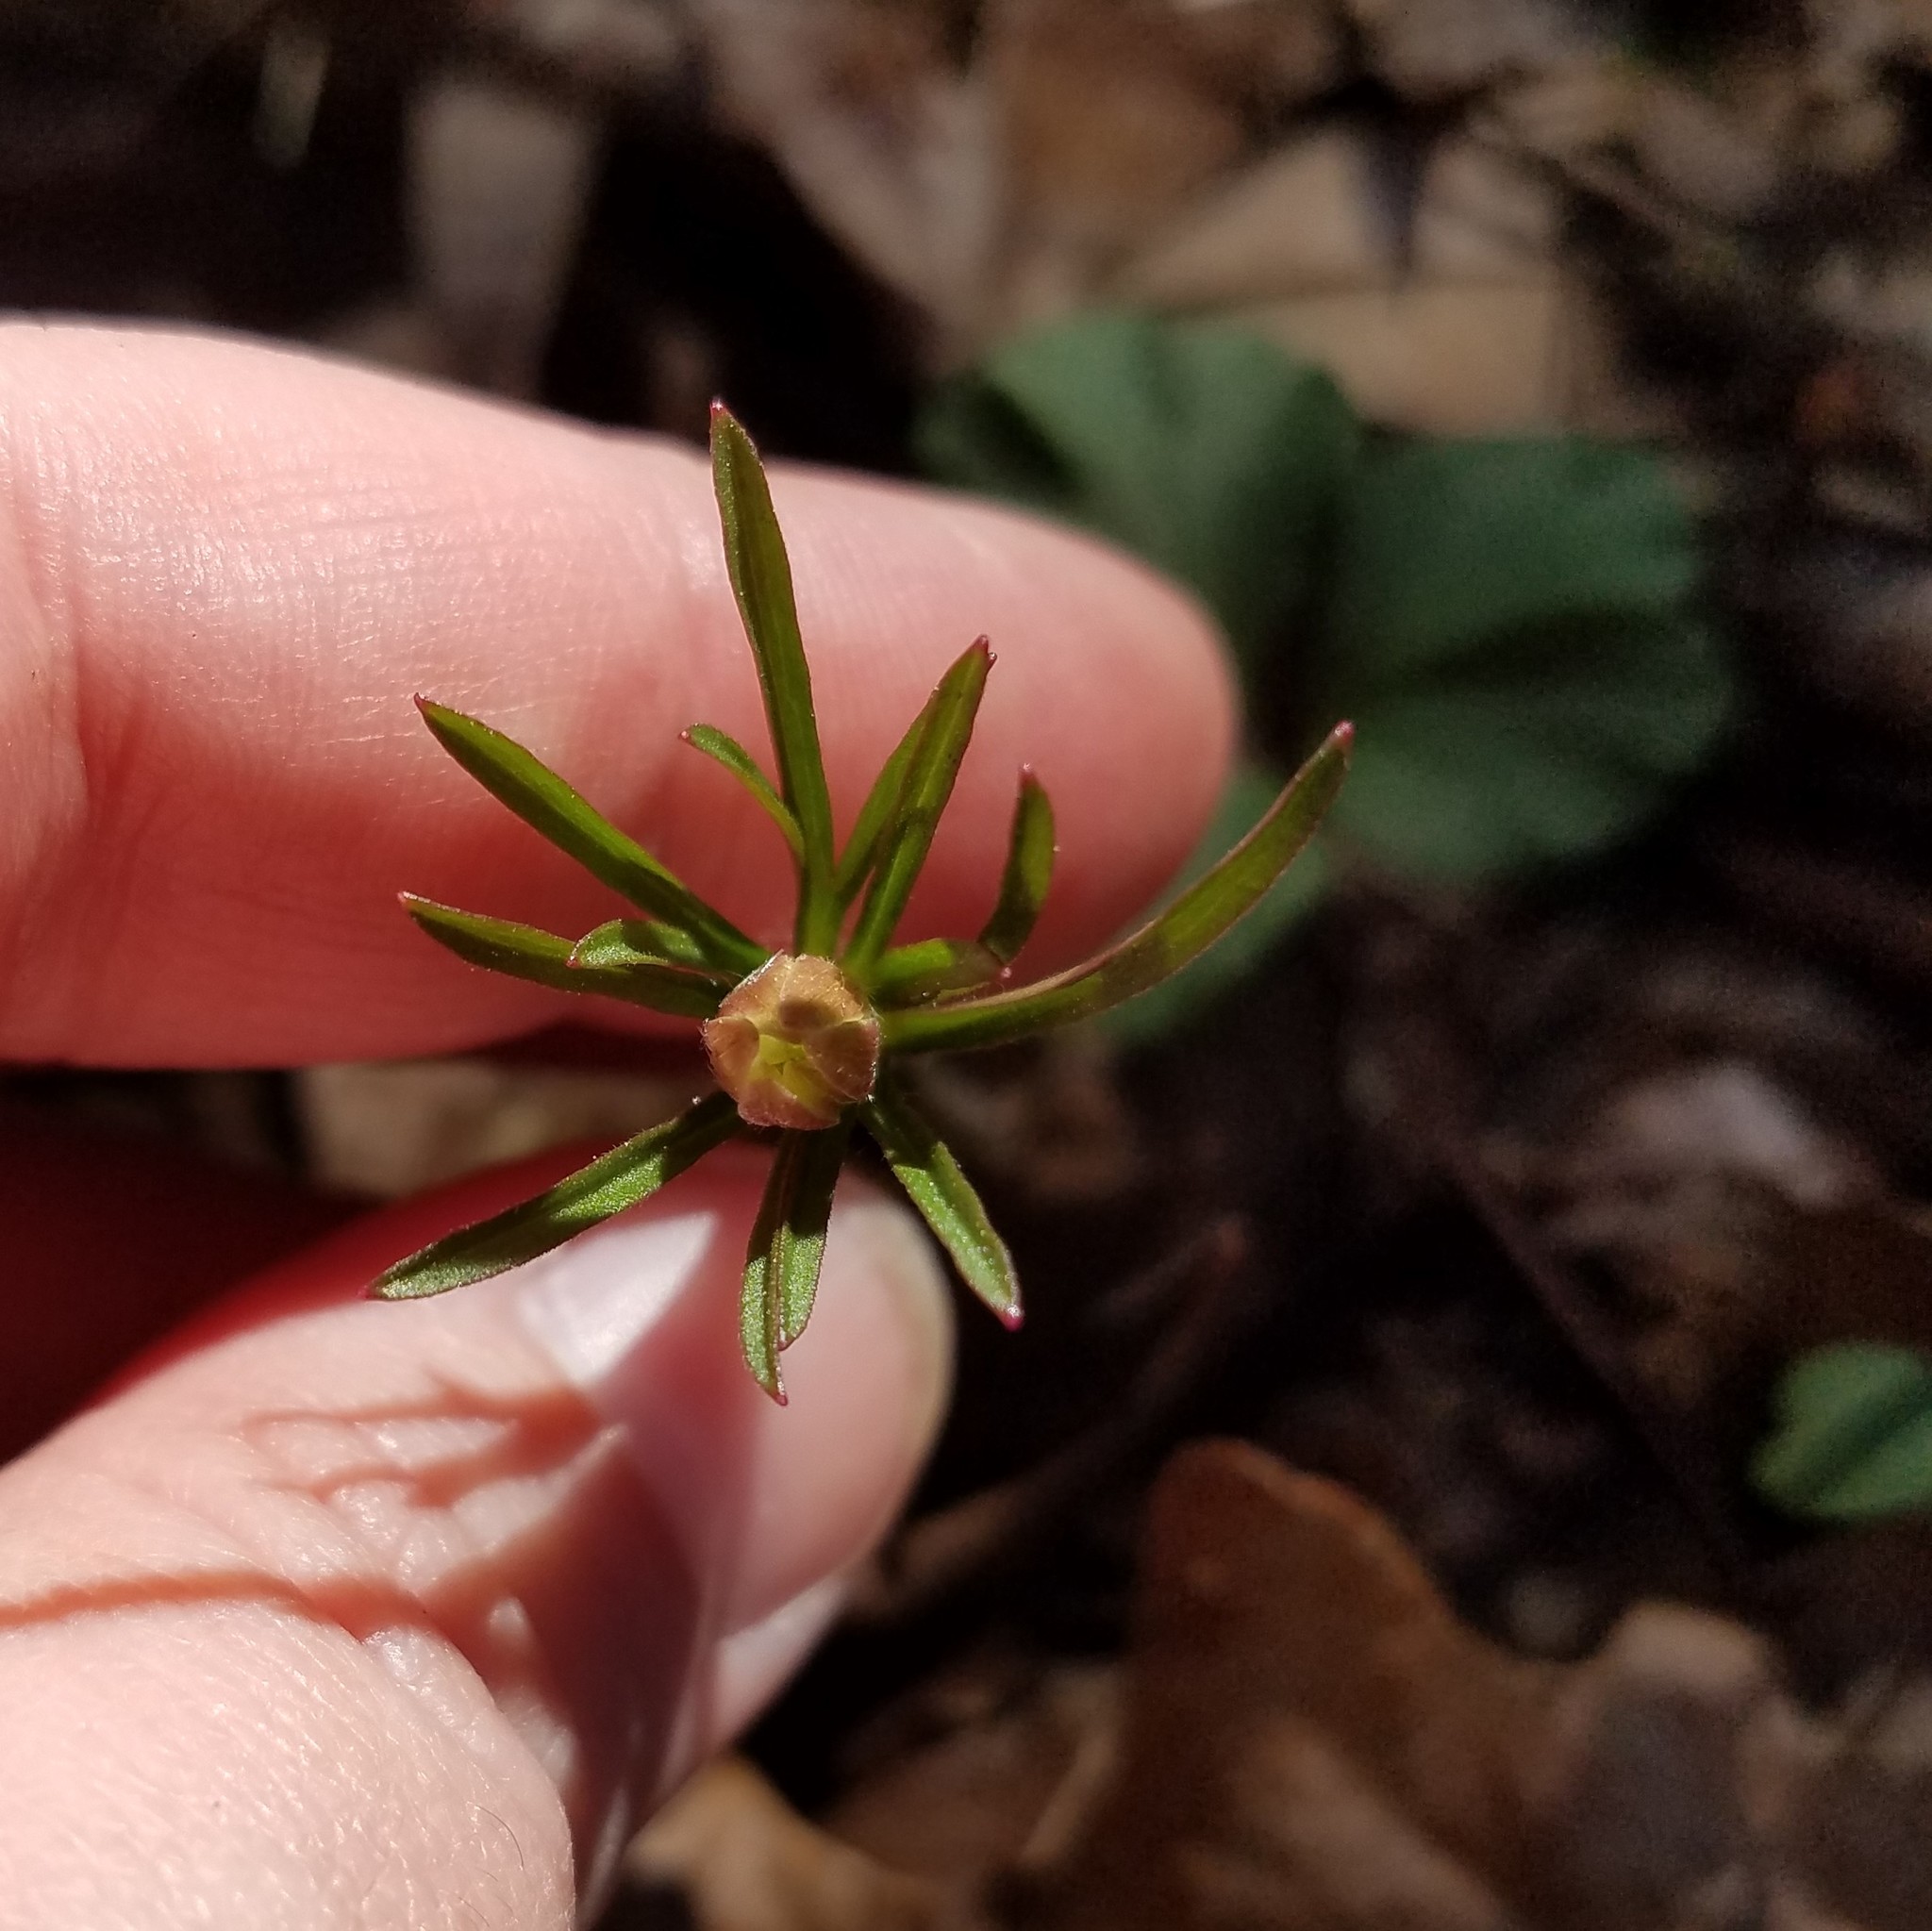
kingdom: Plantae
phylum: Tracheophyta
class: Magnoliopsida
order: Ranunculales
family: Ranunculaceae
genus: Anemone
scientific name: Anemone berlandieri
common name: Ten-petal anemone
